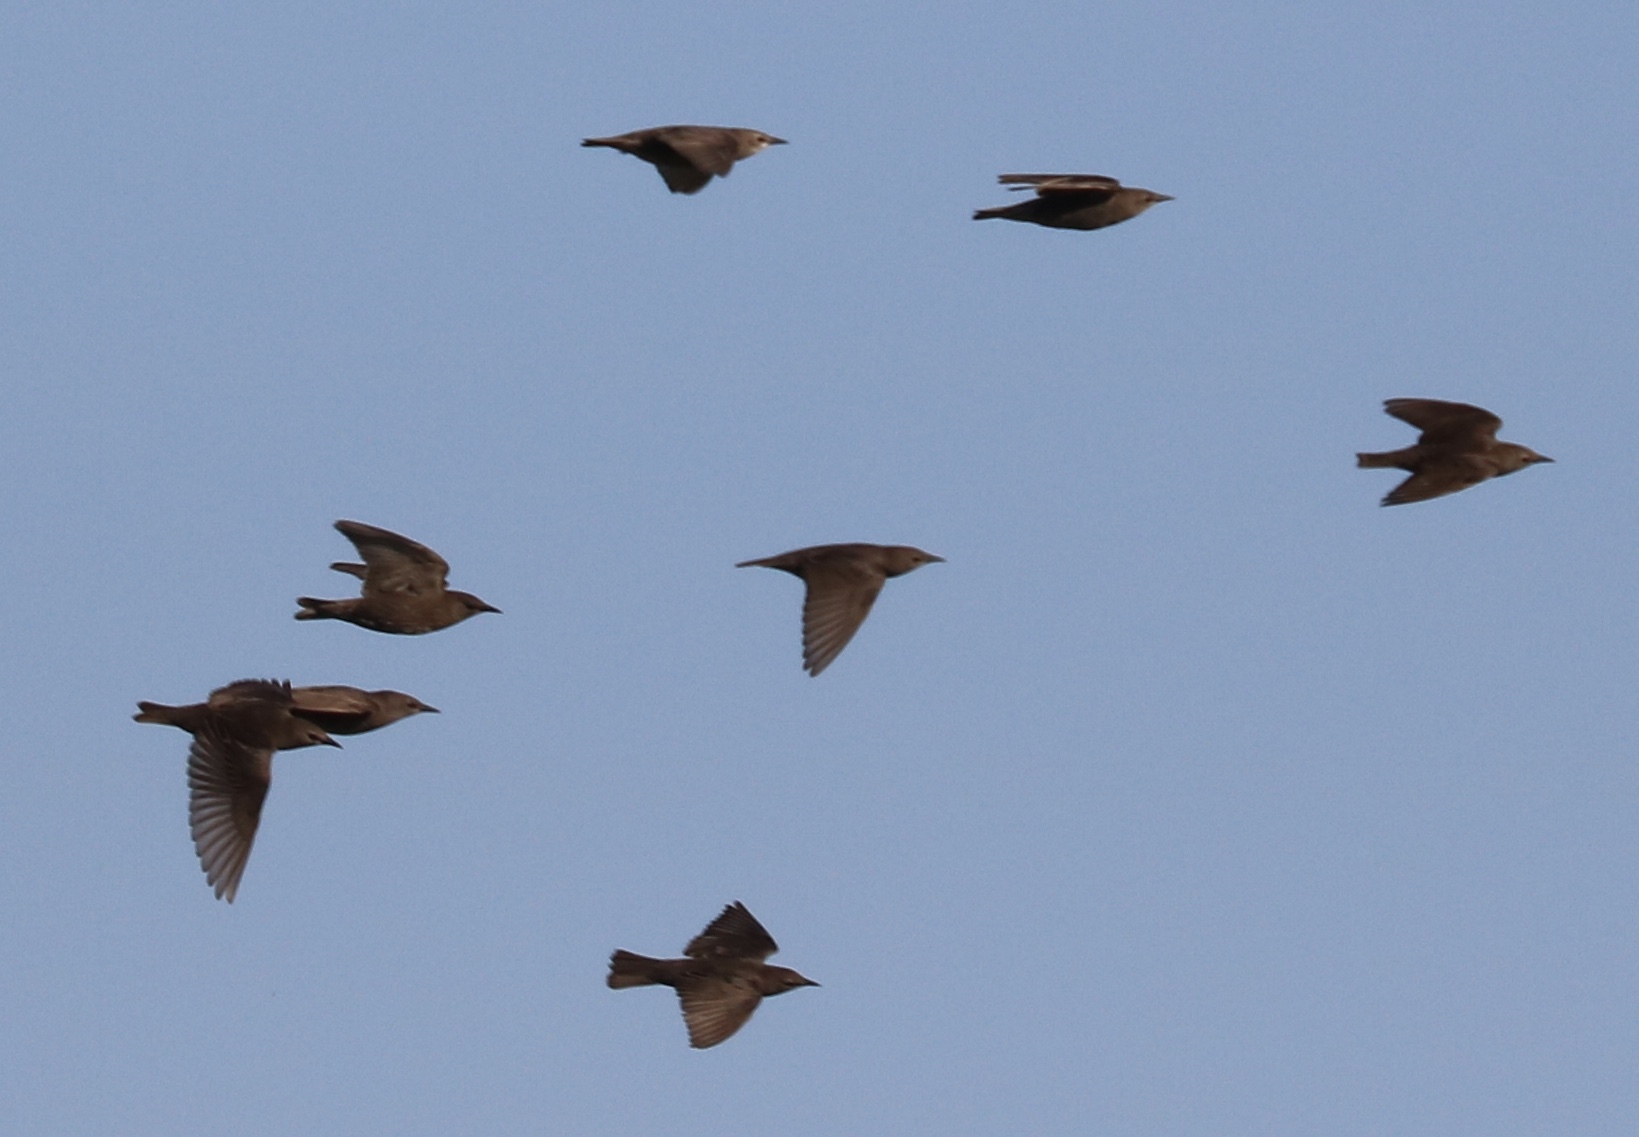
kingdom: Animalia
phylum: Chordata
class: Aves
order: Passeriformes
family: Sturnidae
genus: Sturnus
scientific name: Sturnus vulgaris
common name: Common starling
